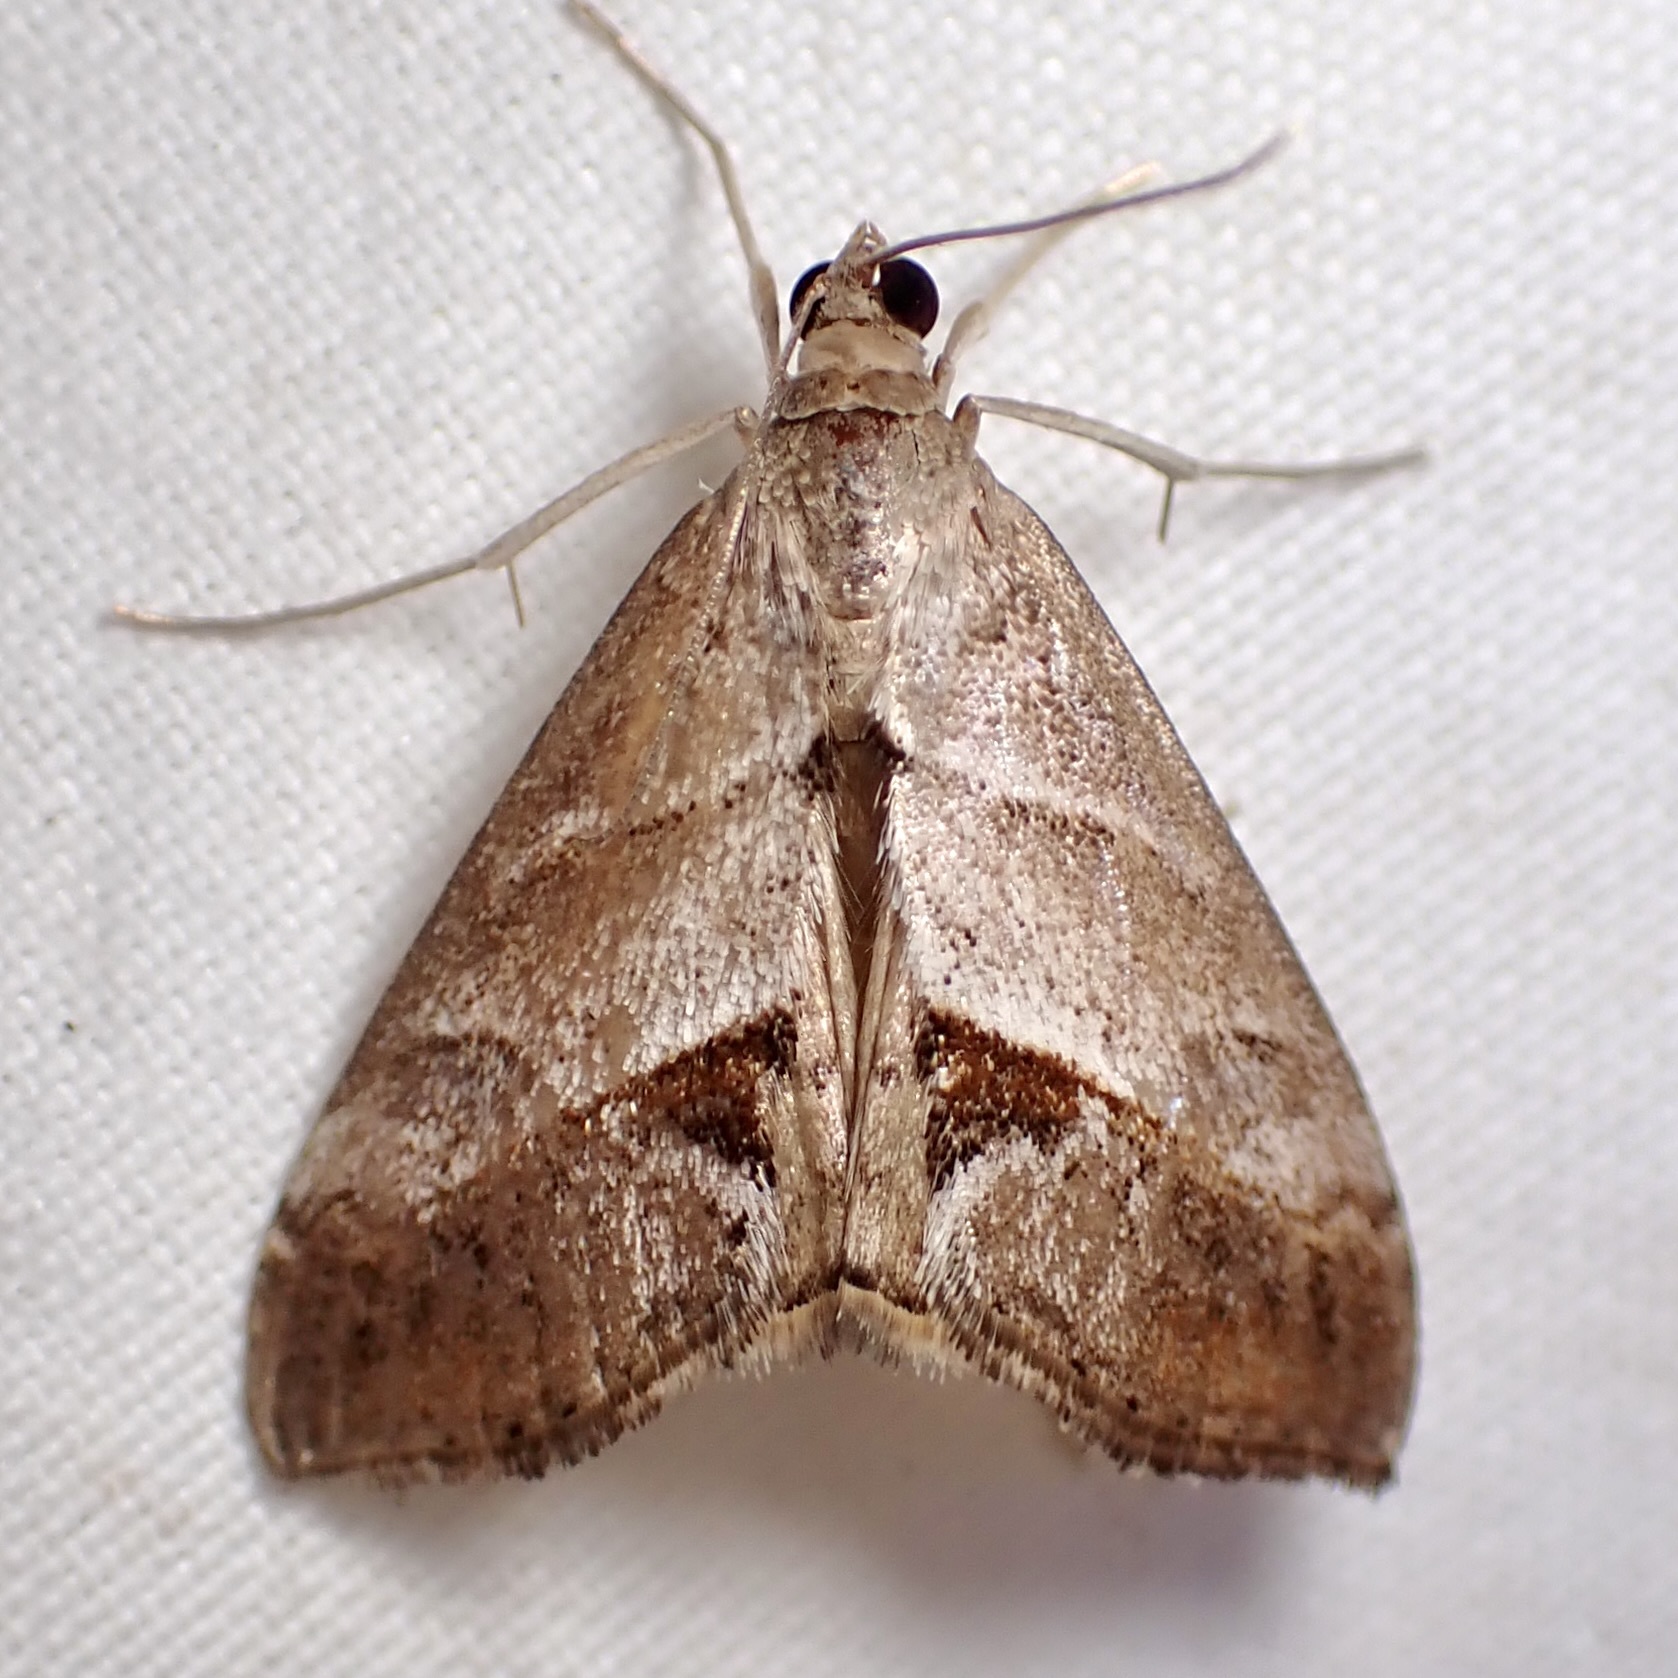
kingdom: Animalia
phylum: Arthropoda
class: Insecta
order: Lepidoptera
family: Crambidae
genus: Evergestis
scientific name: Evergestis triangulalis
